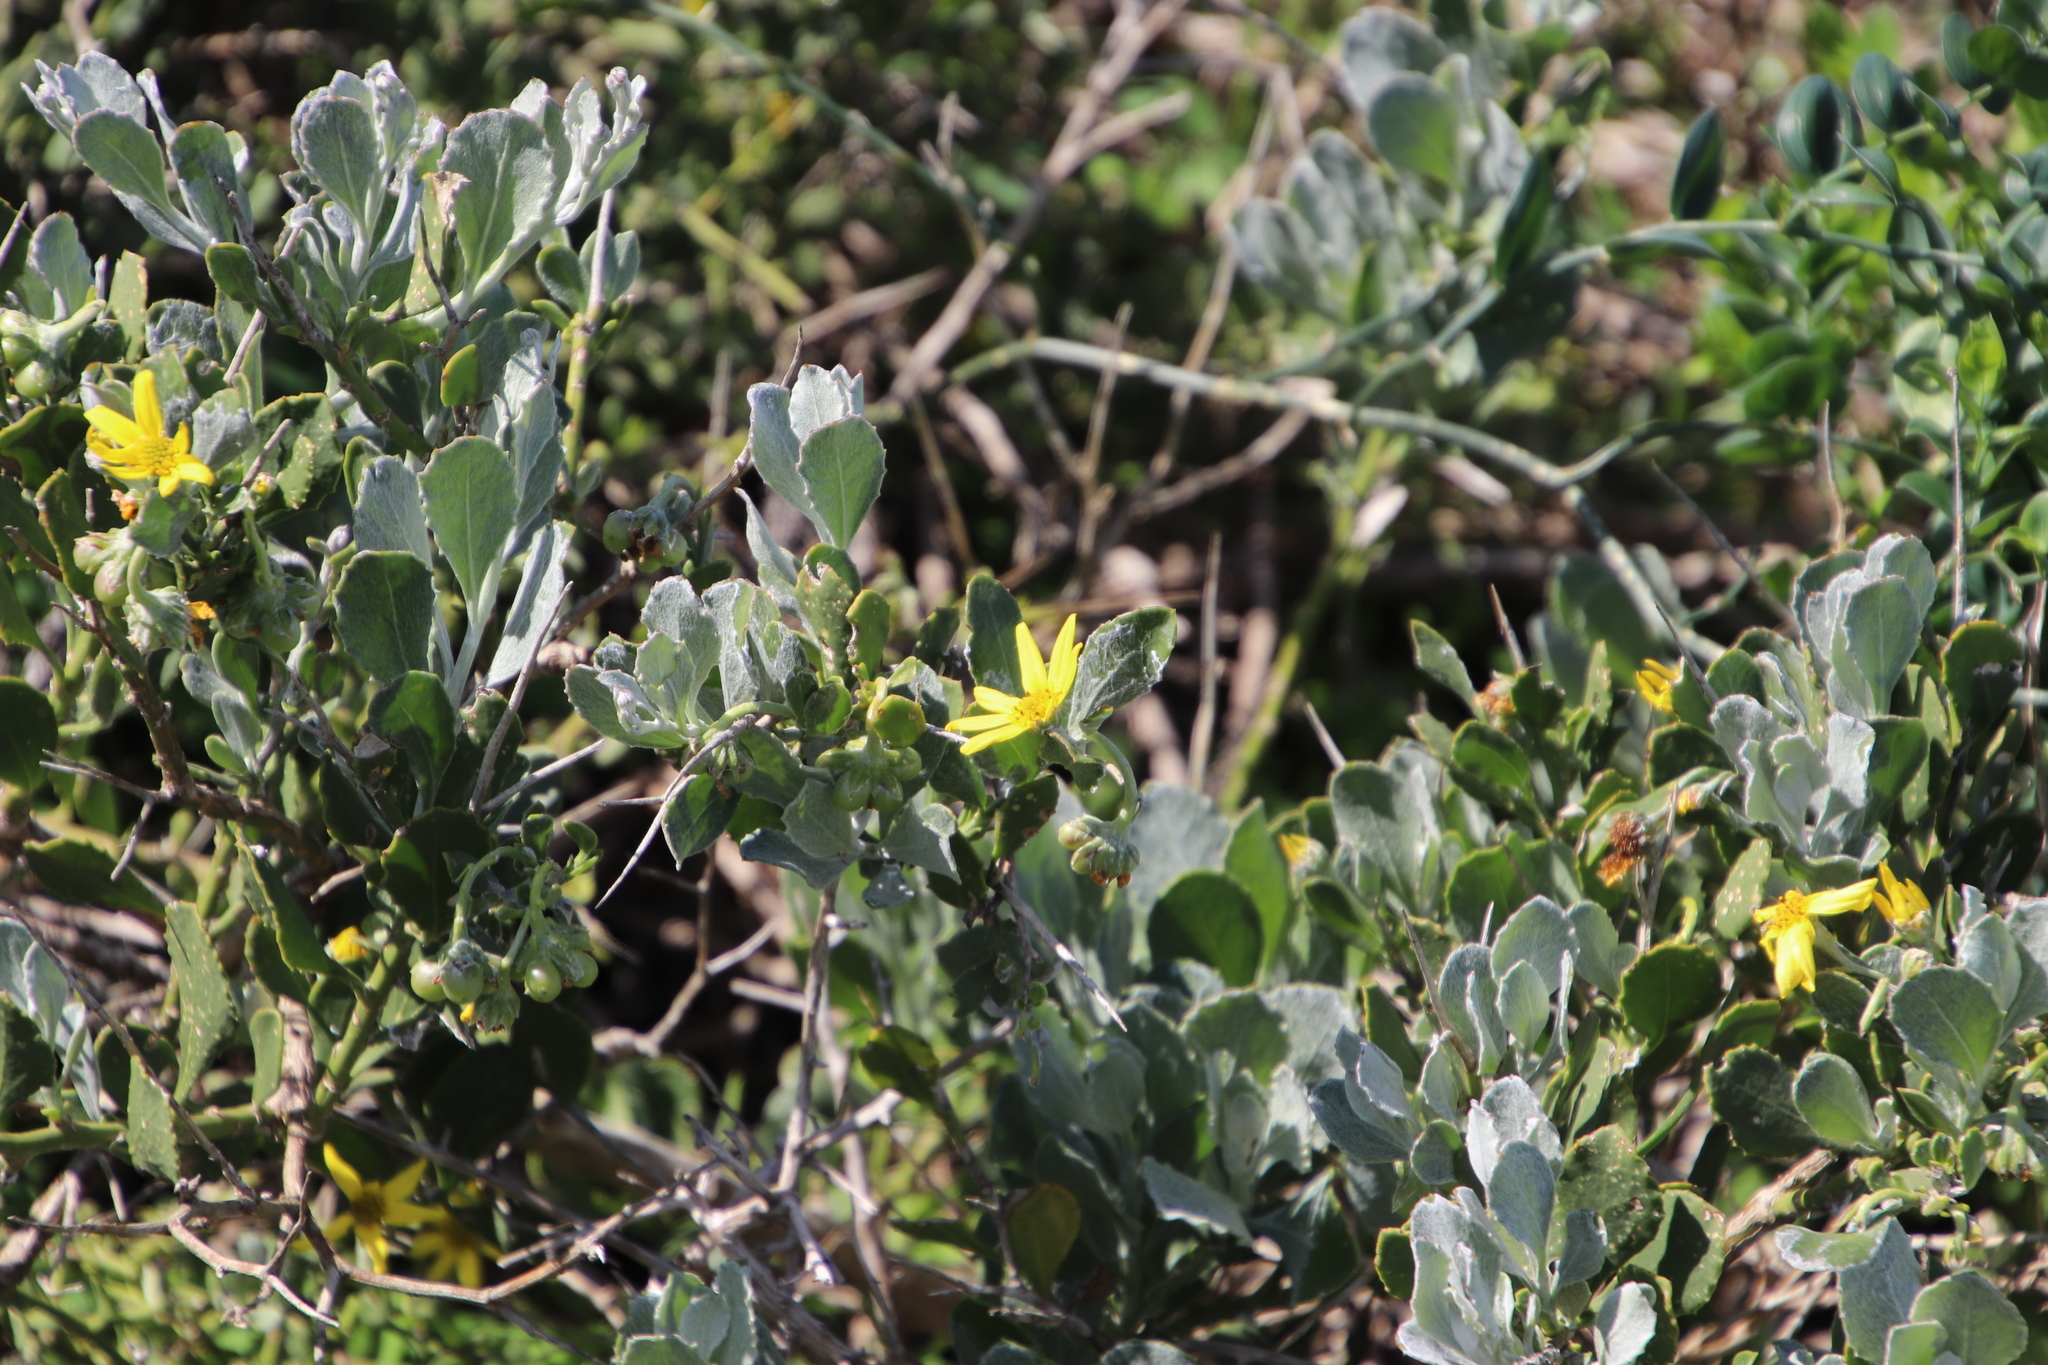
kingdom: Plantae
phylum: Tracheophyta
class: Magnoliopsida
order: Asterales
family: Asteraceae
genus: Osteospermum
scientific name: Osteospermum moniliferum
